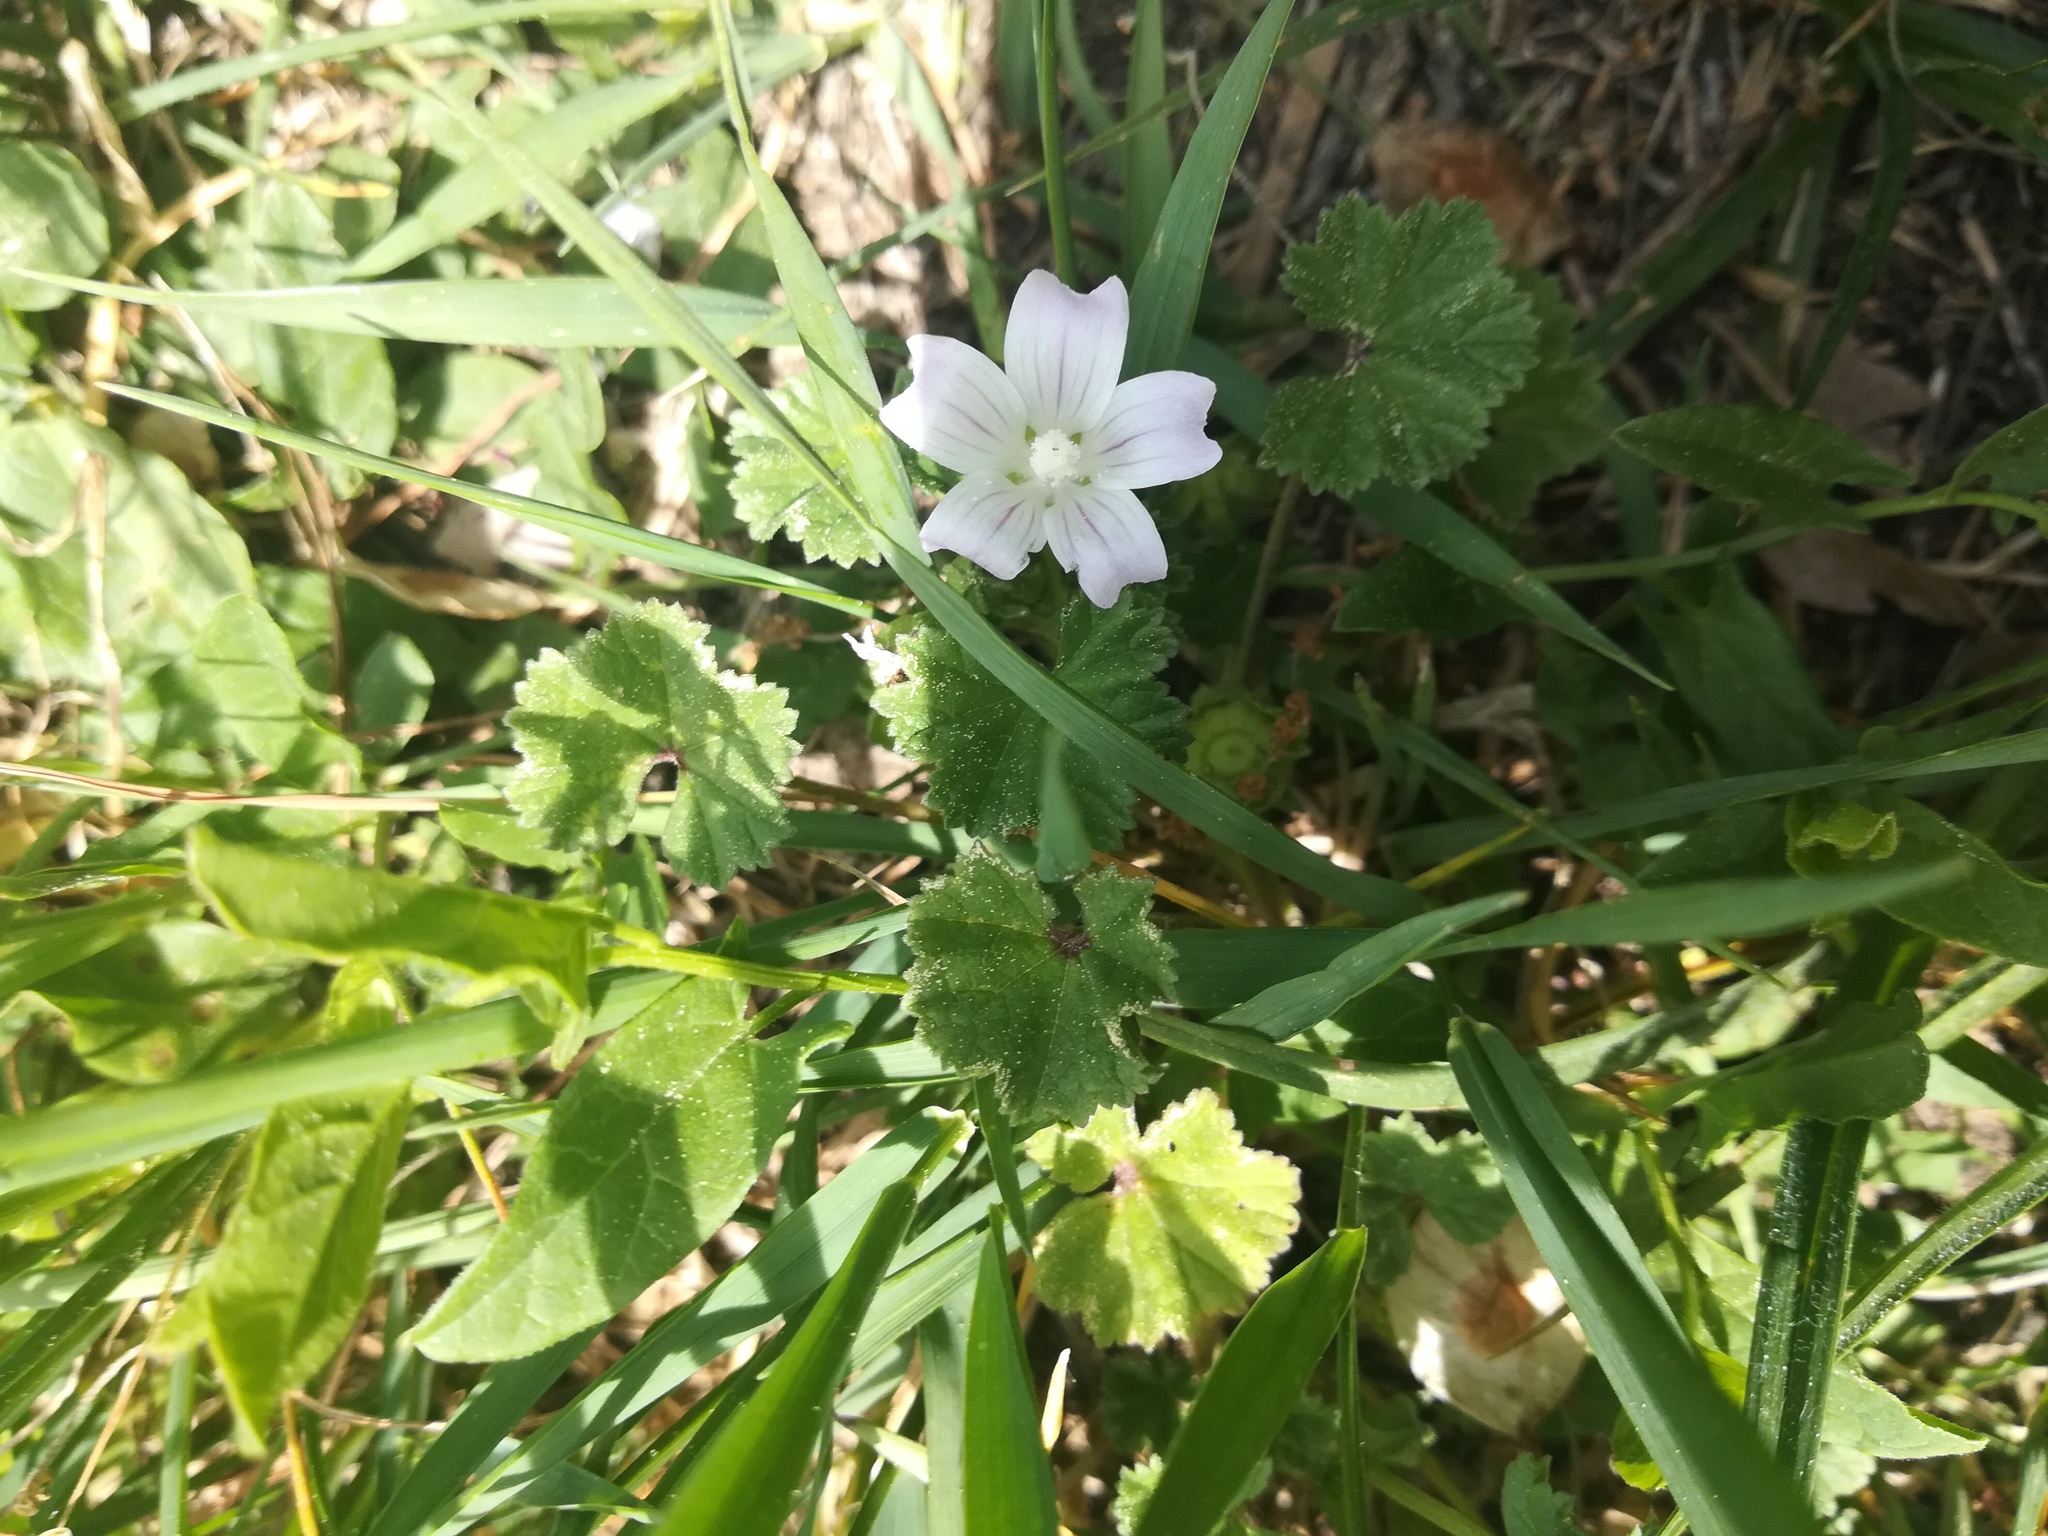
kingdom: Plantae
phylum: Tracheophyta
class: Magnoliopsida
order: Malvales
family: Malvaceae
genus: Malva
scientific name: Malva neglecta
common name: Common mallow
